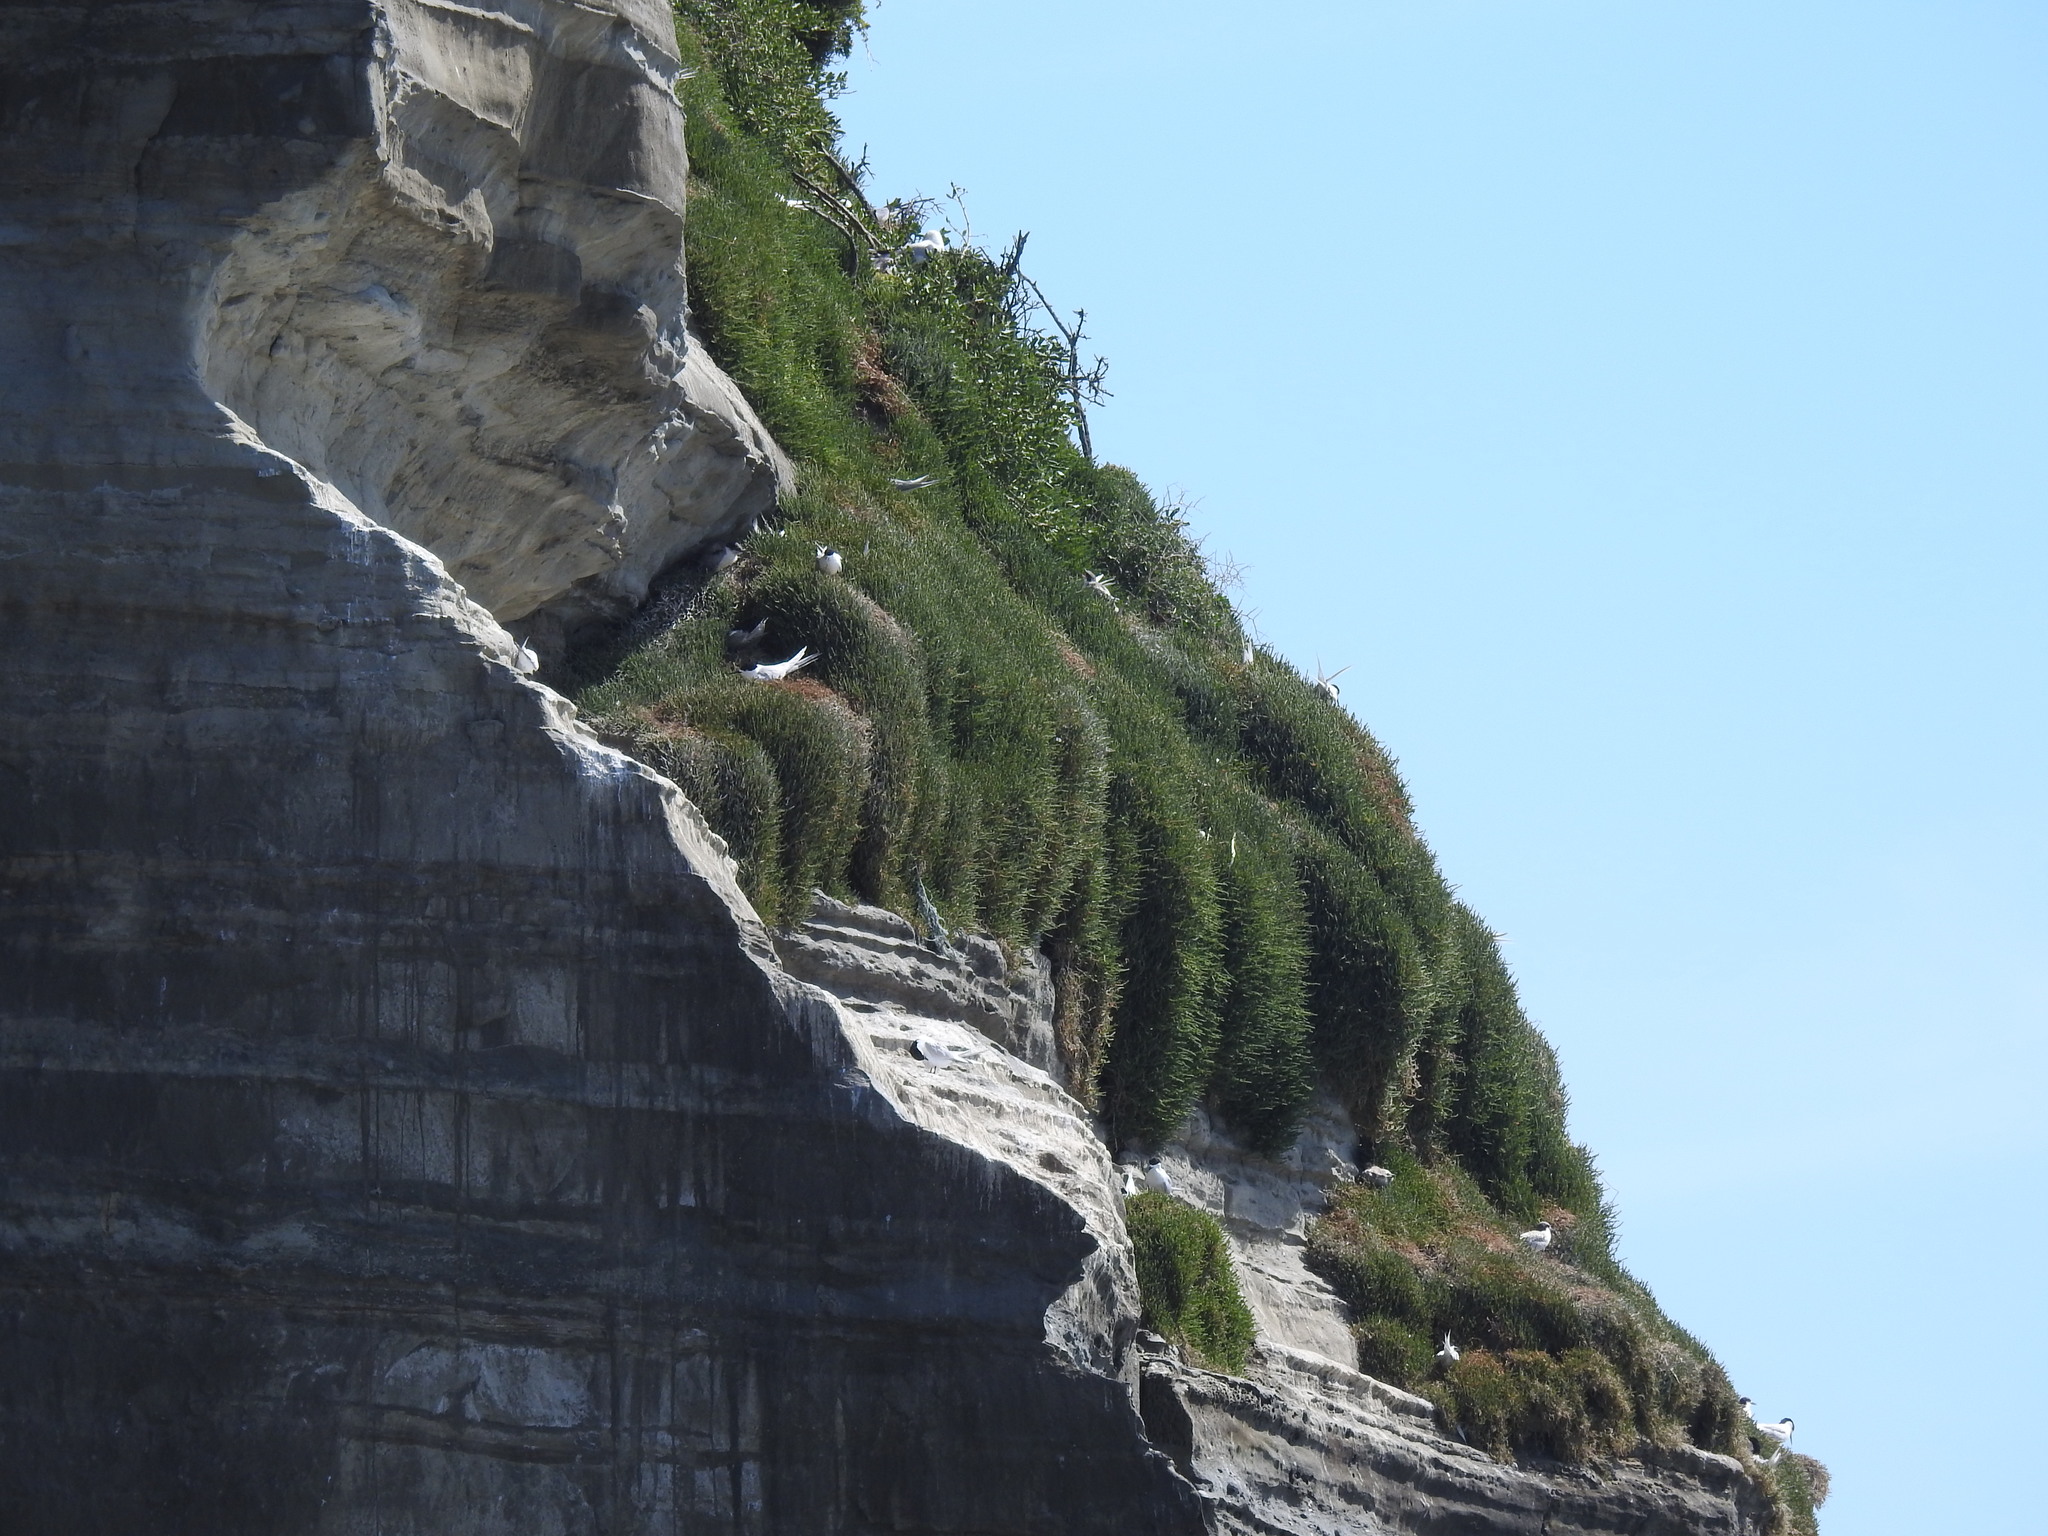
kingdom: Animalia
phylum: Chordata
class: Aves
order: Charadriiformes
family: Laridae
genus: Sterna
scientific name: Sterna striata
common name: White-fronted tern
